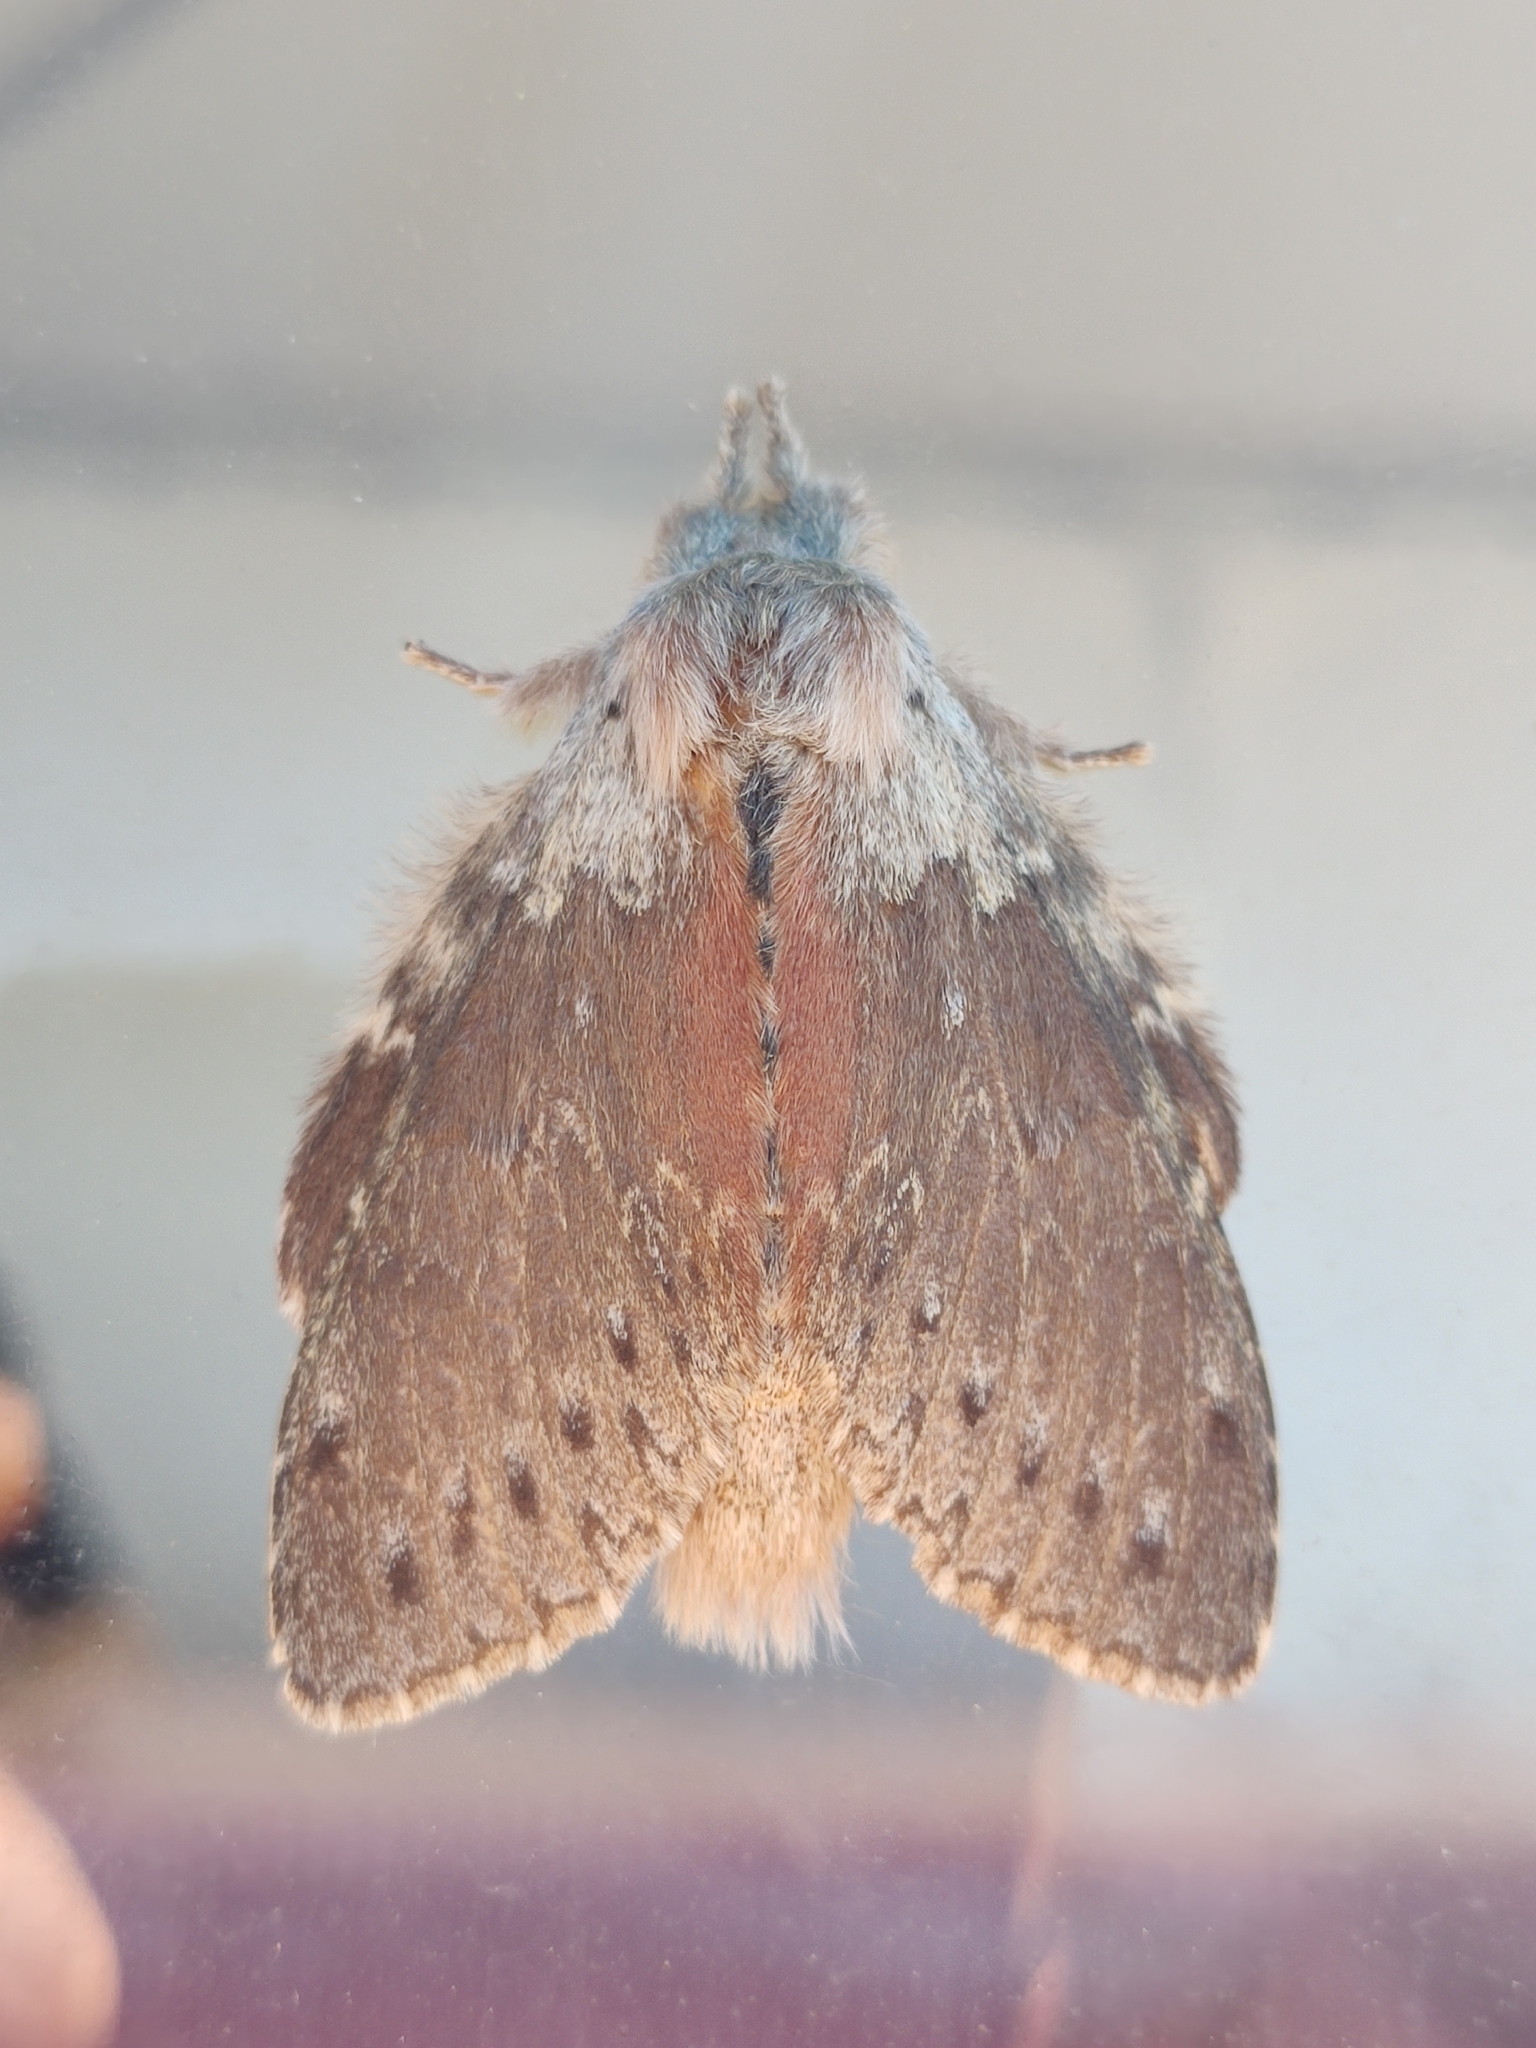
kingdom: Animalia
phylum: Arthropoda
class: Insecta
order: Lepidoptera
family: Notodontidae
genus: Stauropus
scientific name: Stauropus fagi
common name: Lobster moth
